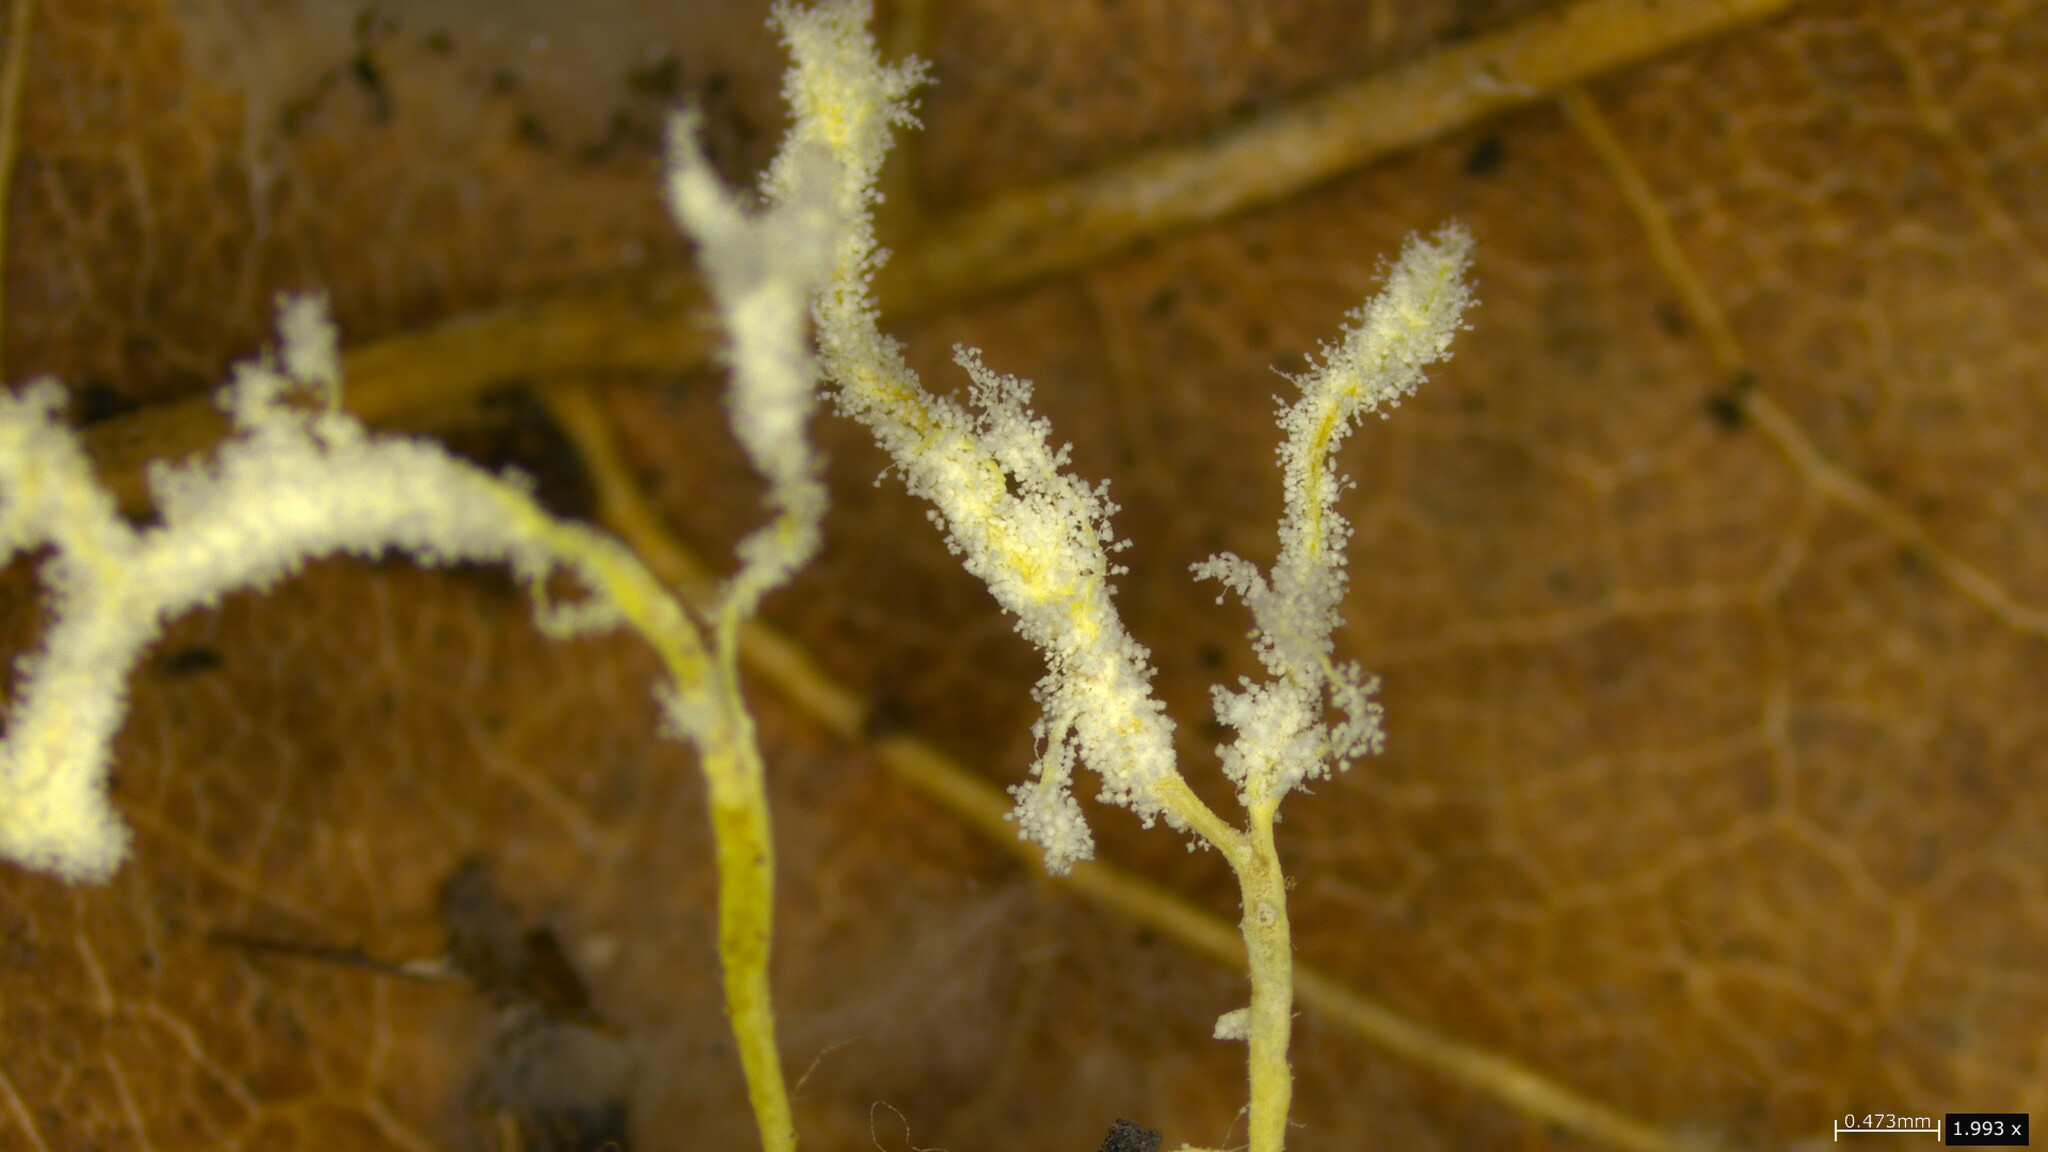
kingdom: Fungi
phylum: Ascomycota
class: Sordariomycetes
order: Hypocreales
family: Cordycipitaceae
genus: Cordyceps
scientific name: Cordyceps tenuipes
